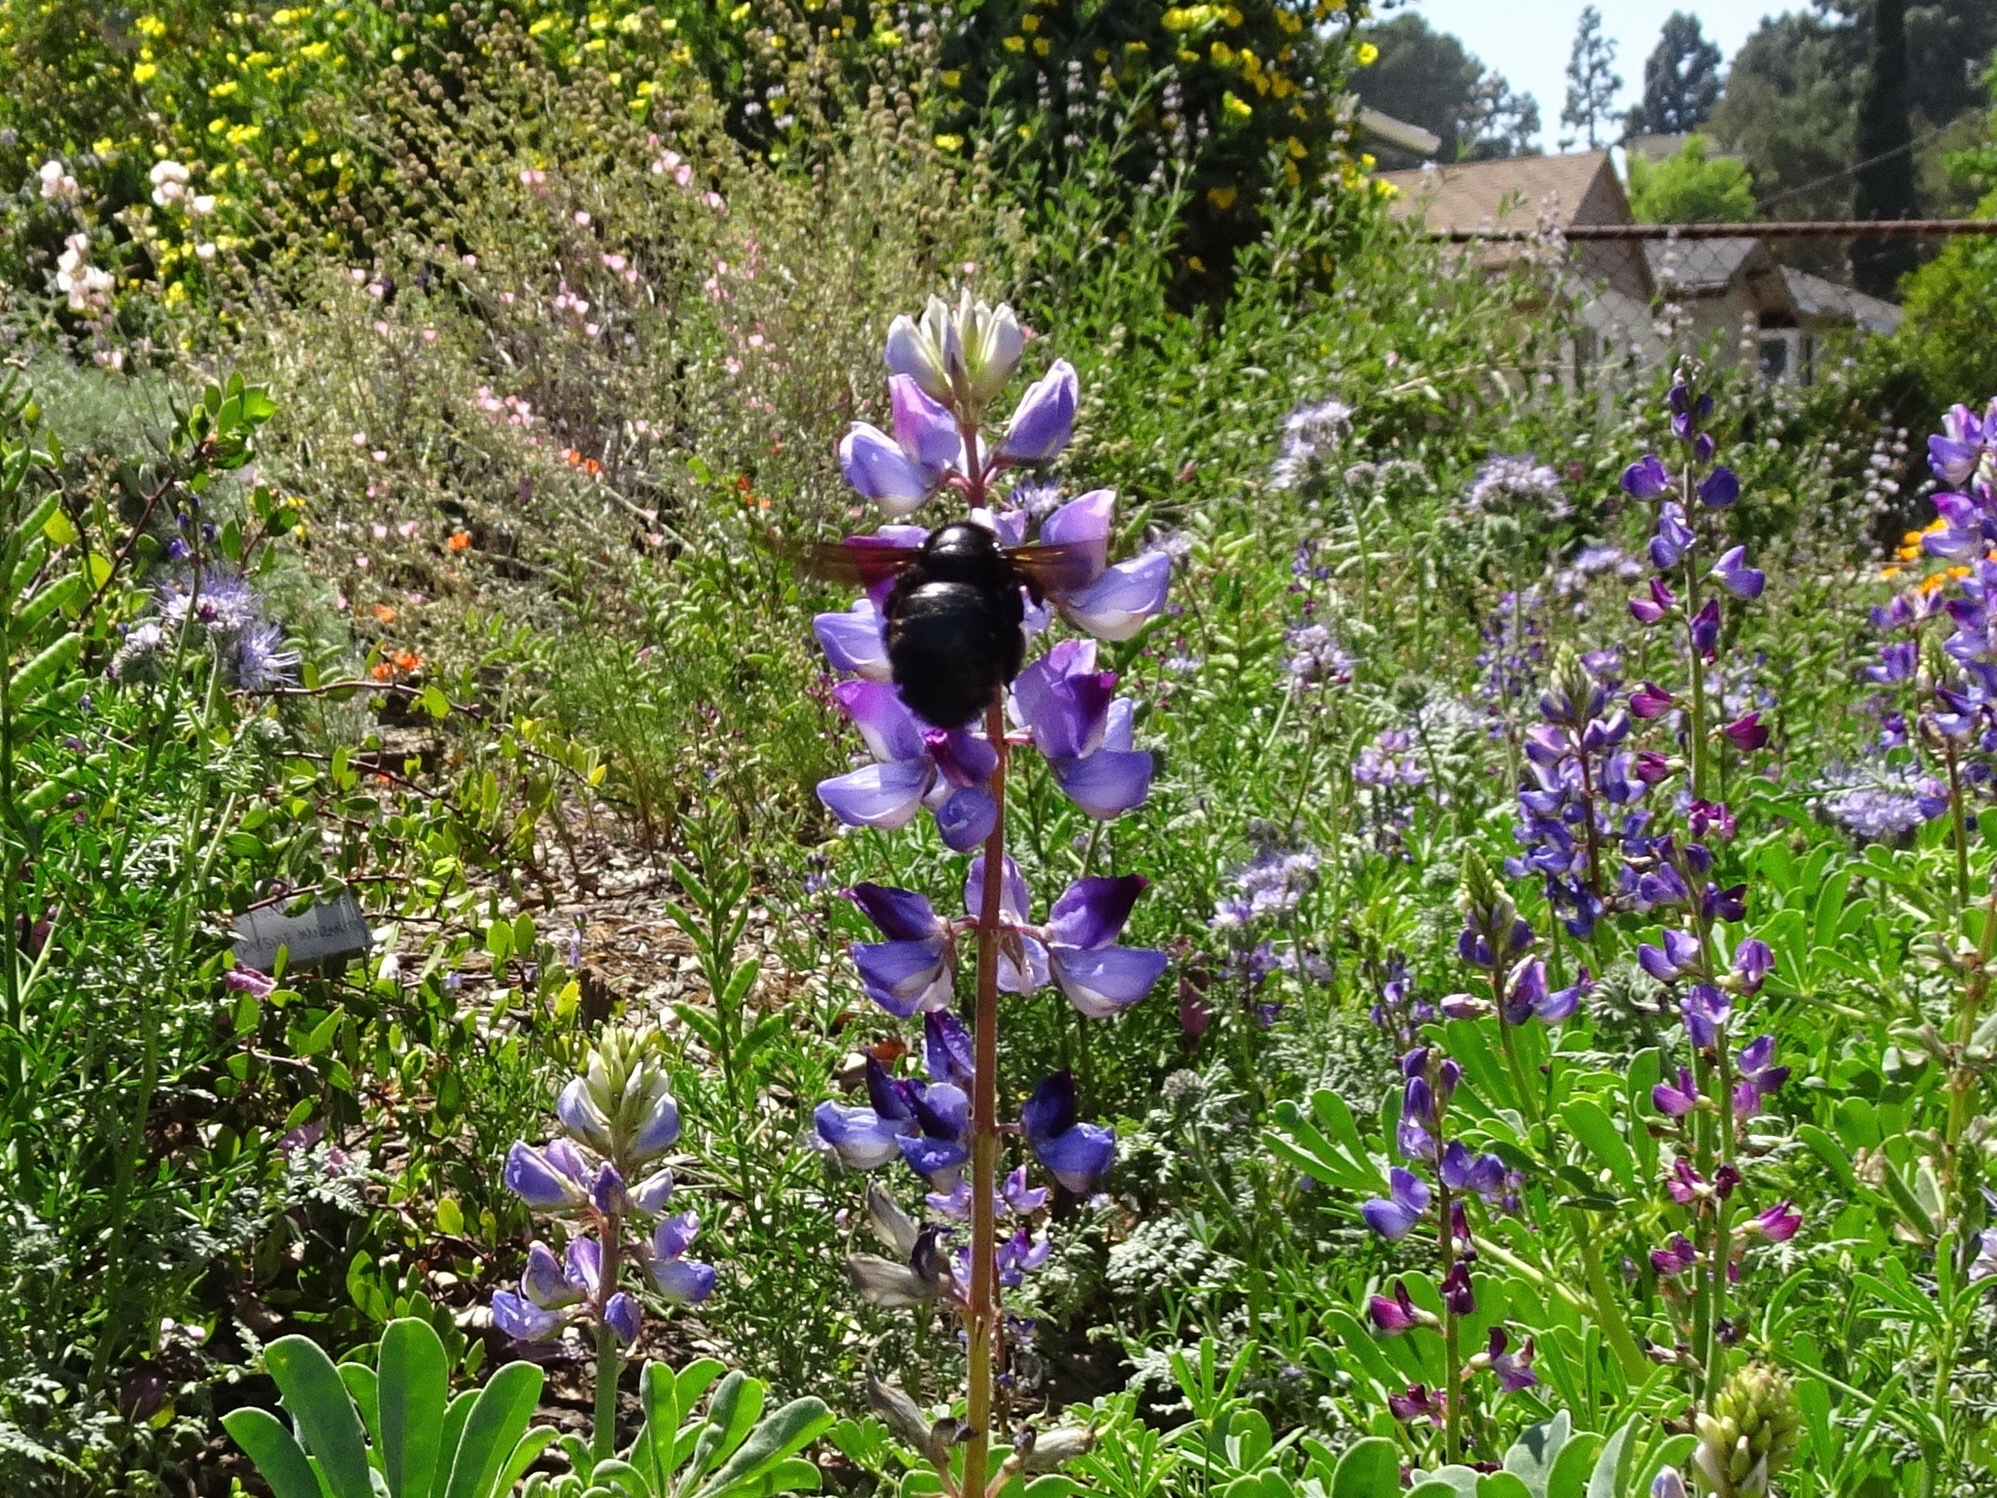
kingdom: Animalia
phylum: Arthropoda
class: Insecta
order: Hymenoptera
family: Apidae
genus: Xylocopa
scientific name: Xylocopa sonorina
